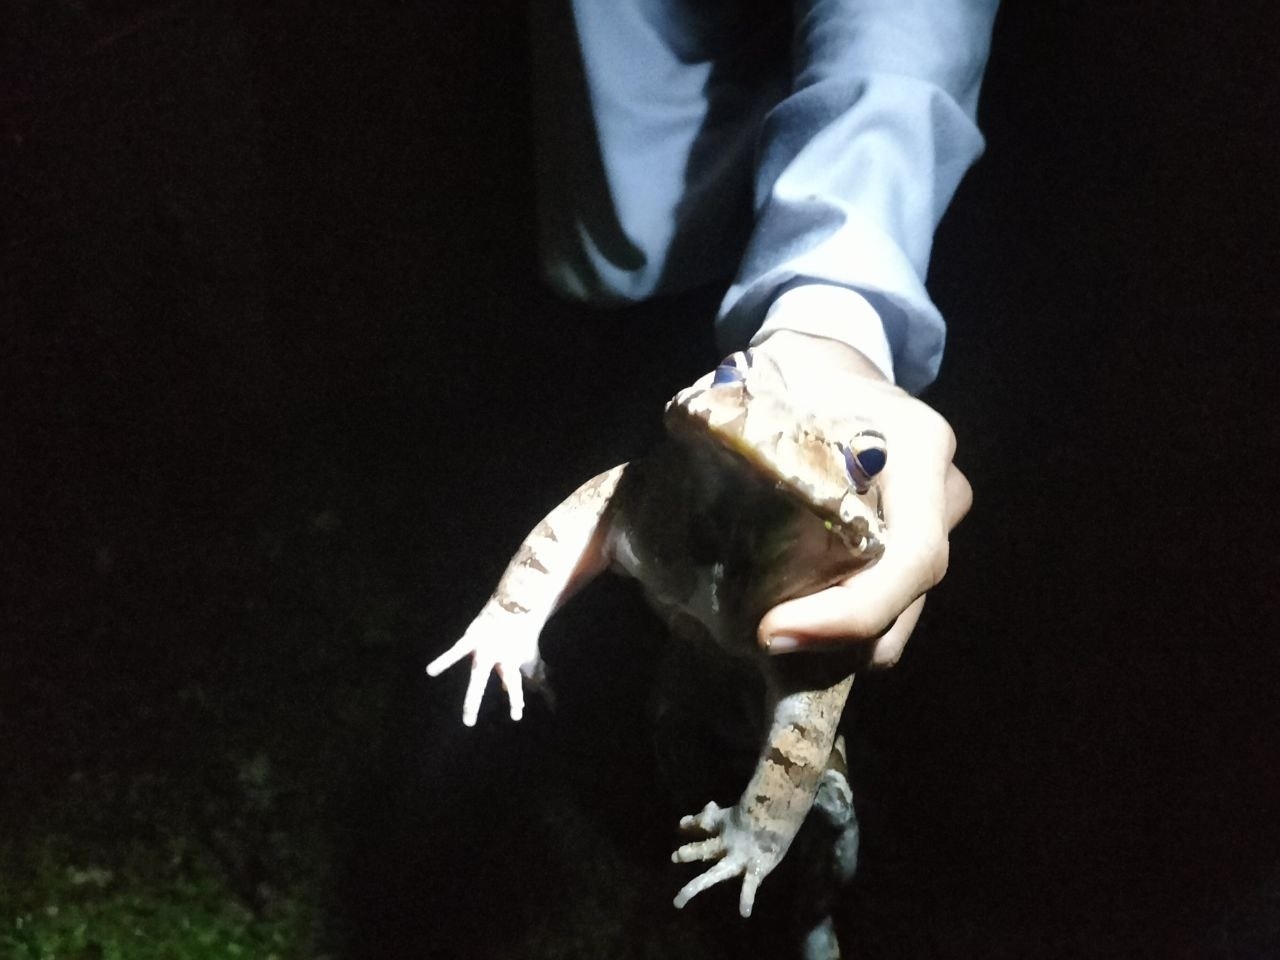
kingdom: Animalia
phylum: Chordata
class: Amphibia
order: Anura
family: Leptodactylidae
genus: Leptodactylus
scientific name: Leptodactylus savagei
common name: Savage's thin-toed frog
